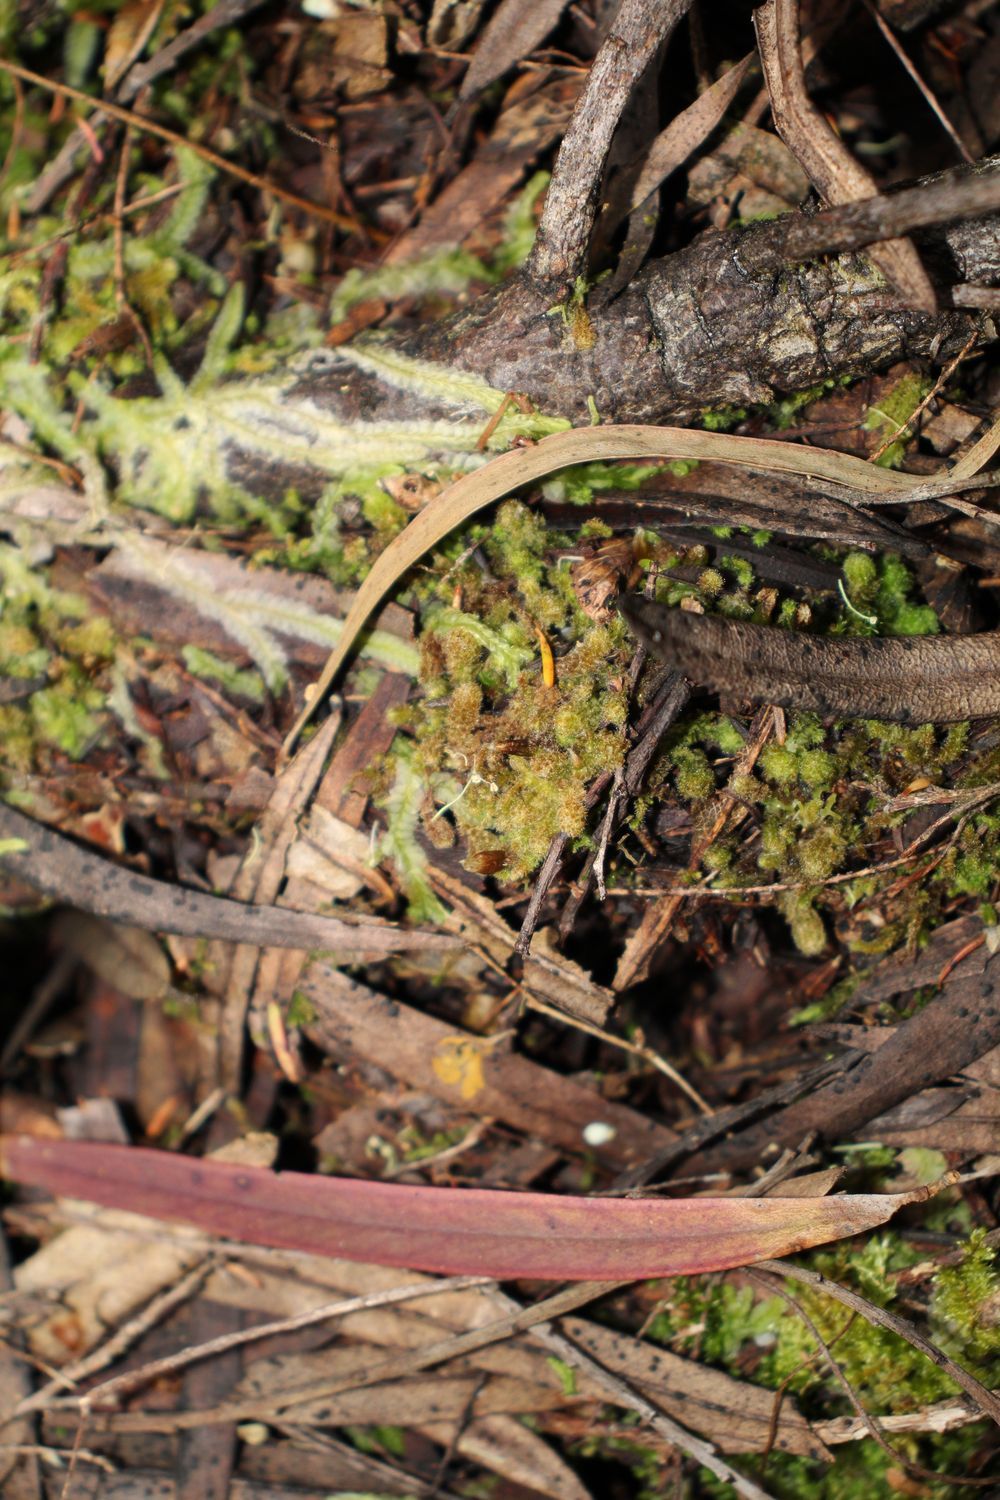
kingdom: Plantae
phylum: Marchantiophyta
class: Jungermanniopsida
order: Jungermanniales
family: Cephaloziellaceae
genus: Chaetophyllopsis
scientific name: Chaetophyllopsis whiteleggei
